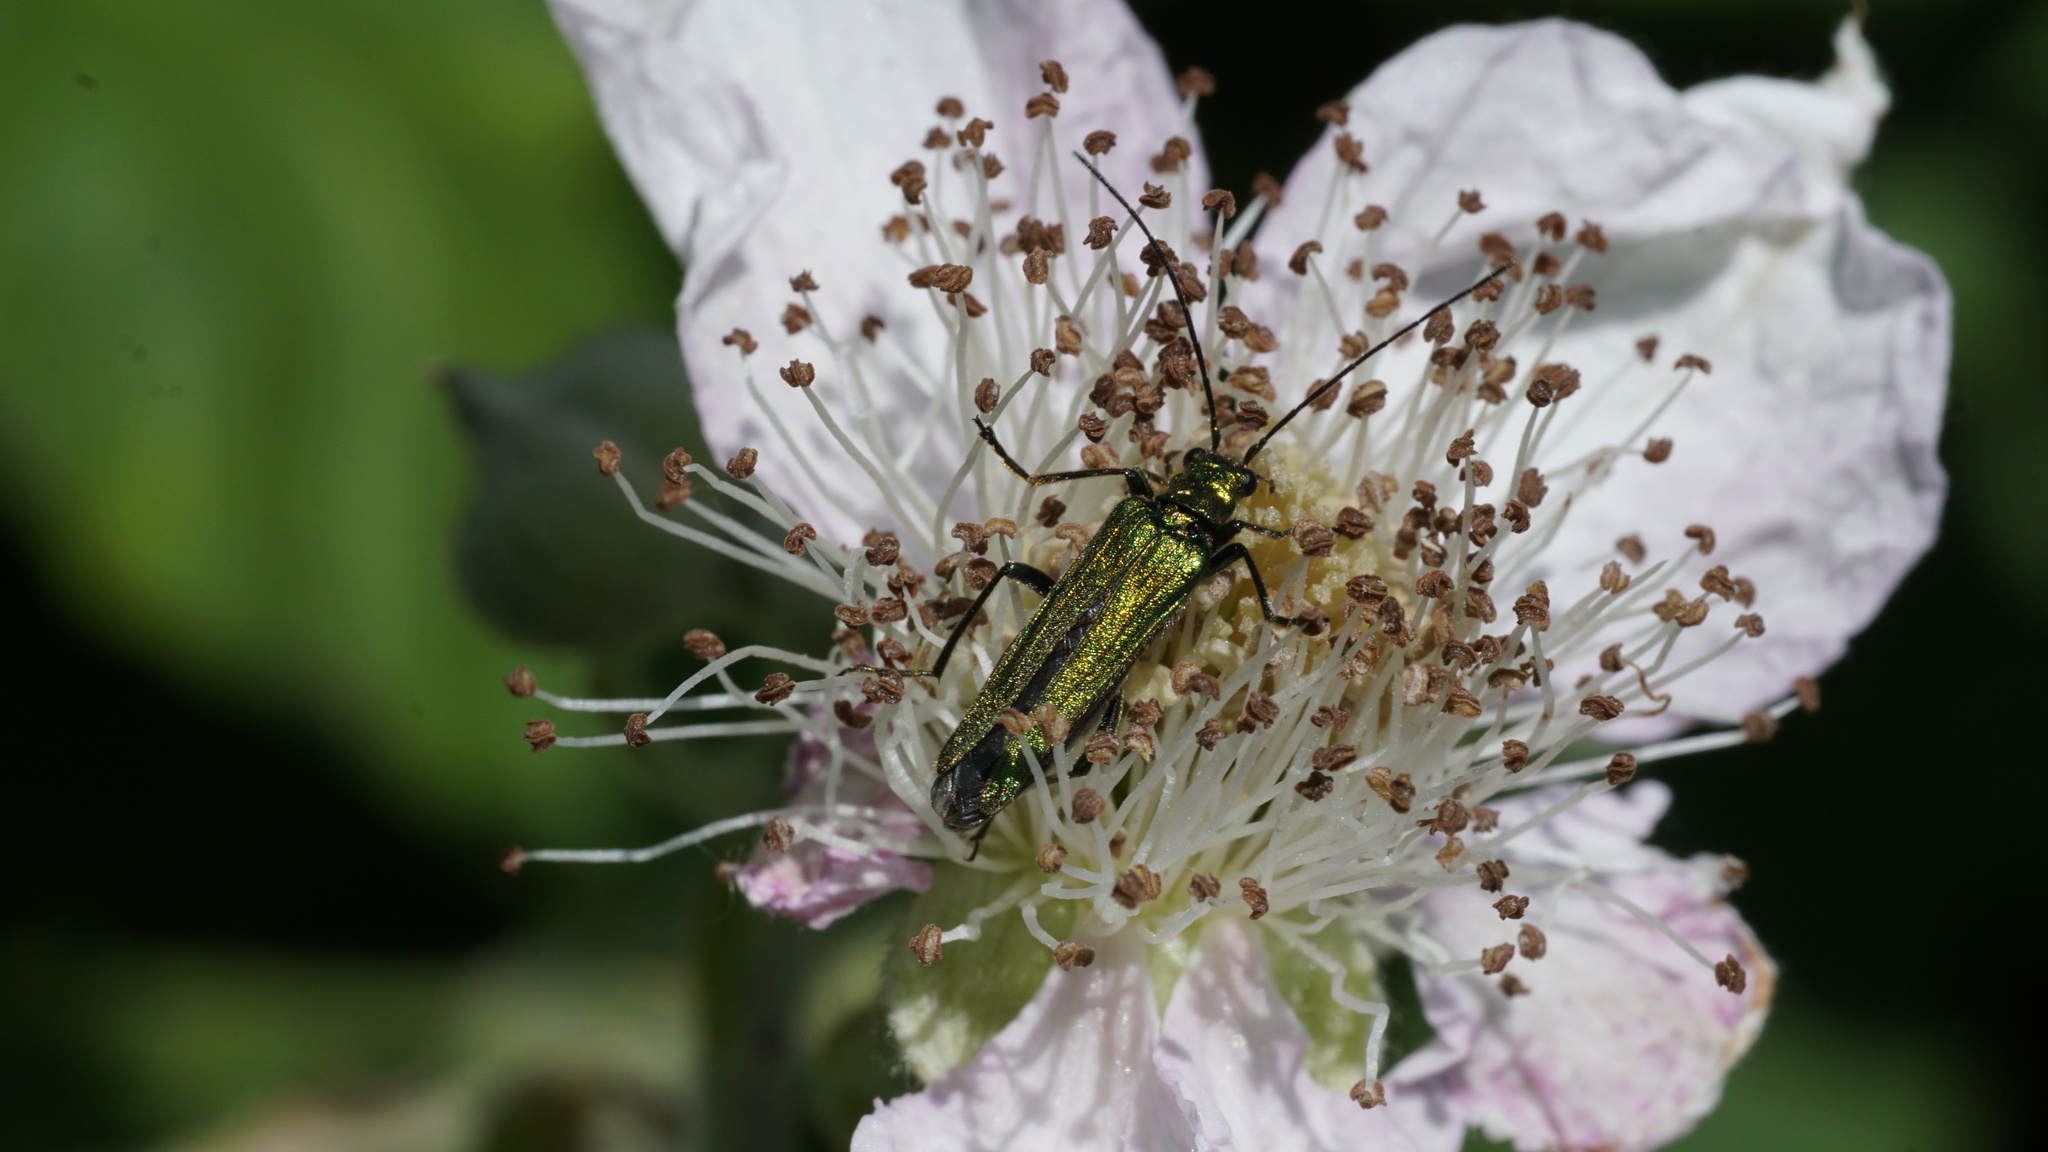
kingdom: Animalia
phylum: Arthropoda
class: Insecta
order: Coleoptera
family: Oedemeridae
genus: Oedemera
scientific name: Oedemera nobilis
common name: Swollen-thighed beetle
